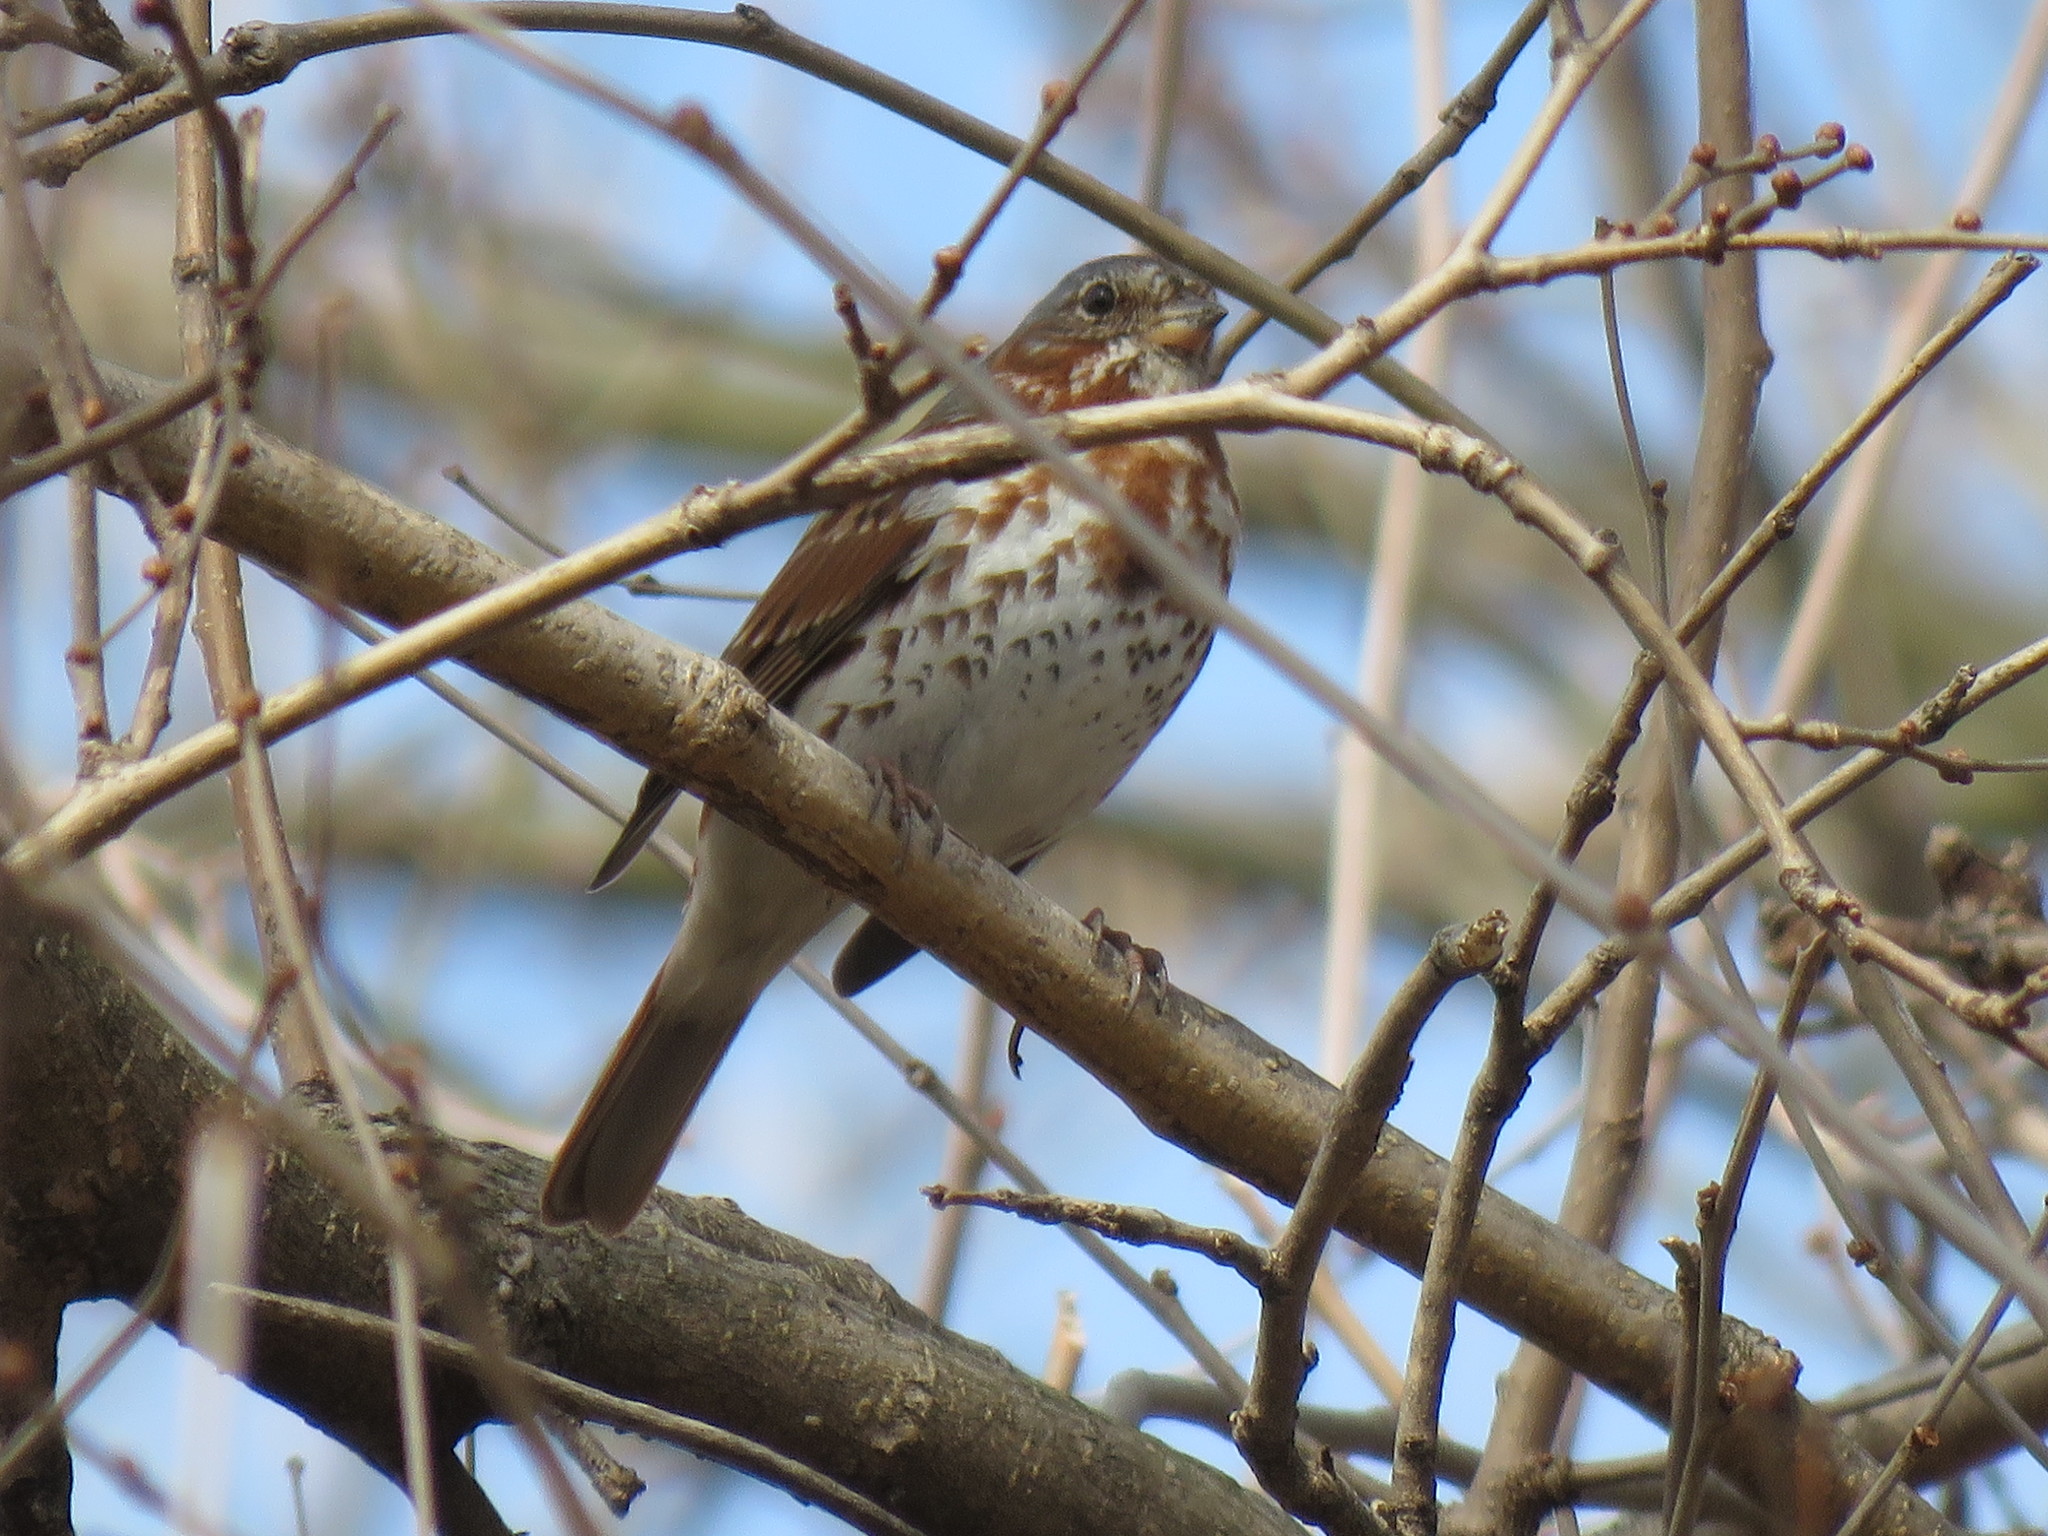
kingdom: Animalia
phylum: Chordata
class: Aves
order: Passeriformes
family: Passerellidae
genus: Passerella
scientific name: Passerella iliaca
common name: Fox sparrow
